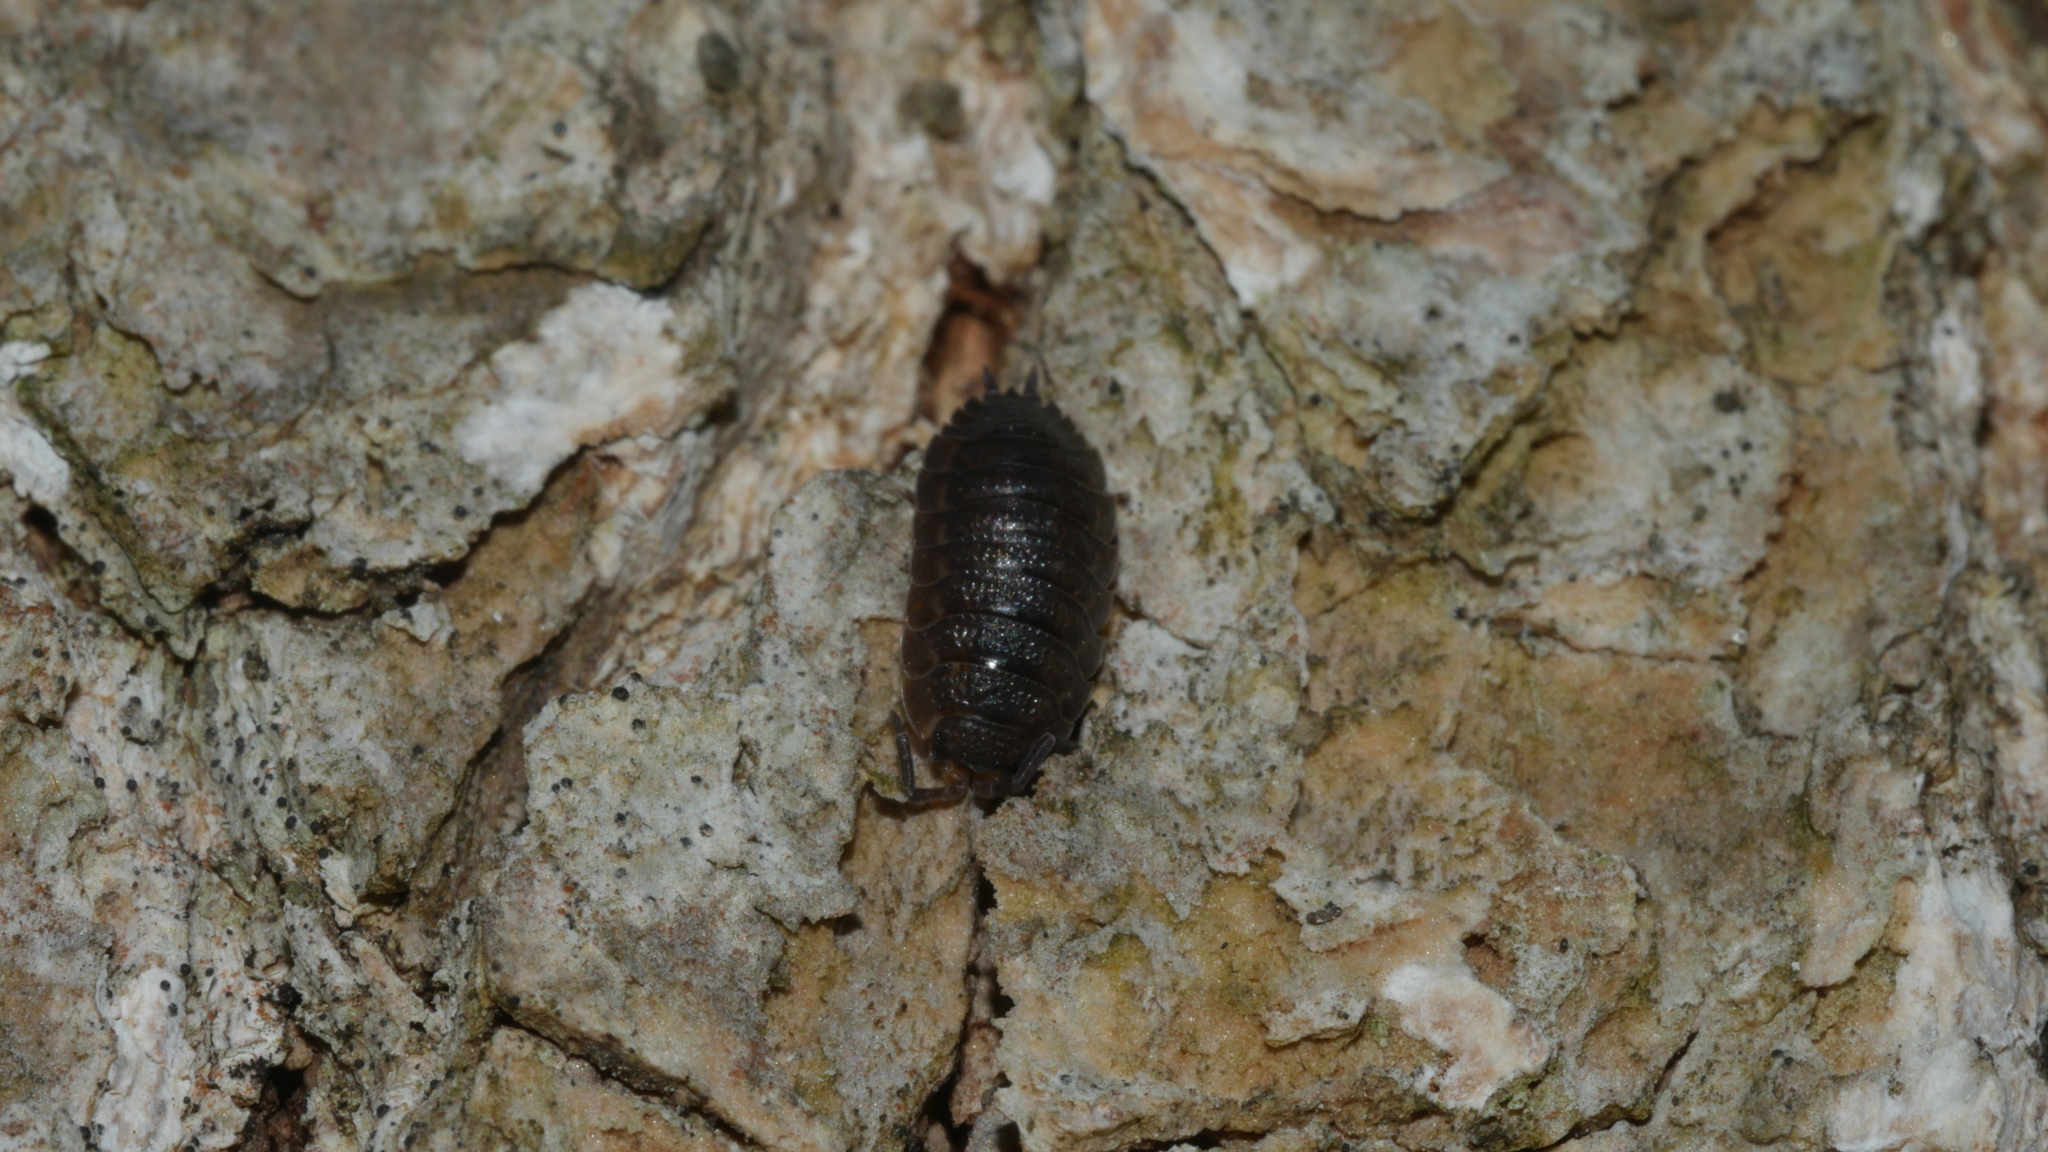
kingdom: Animalia
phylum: Arthropoda
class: Malacostraca
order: Isopoda
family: Porcellionidae
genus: Porcellio
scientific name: Porcellio scaber
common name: Common rough woodlouse
